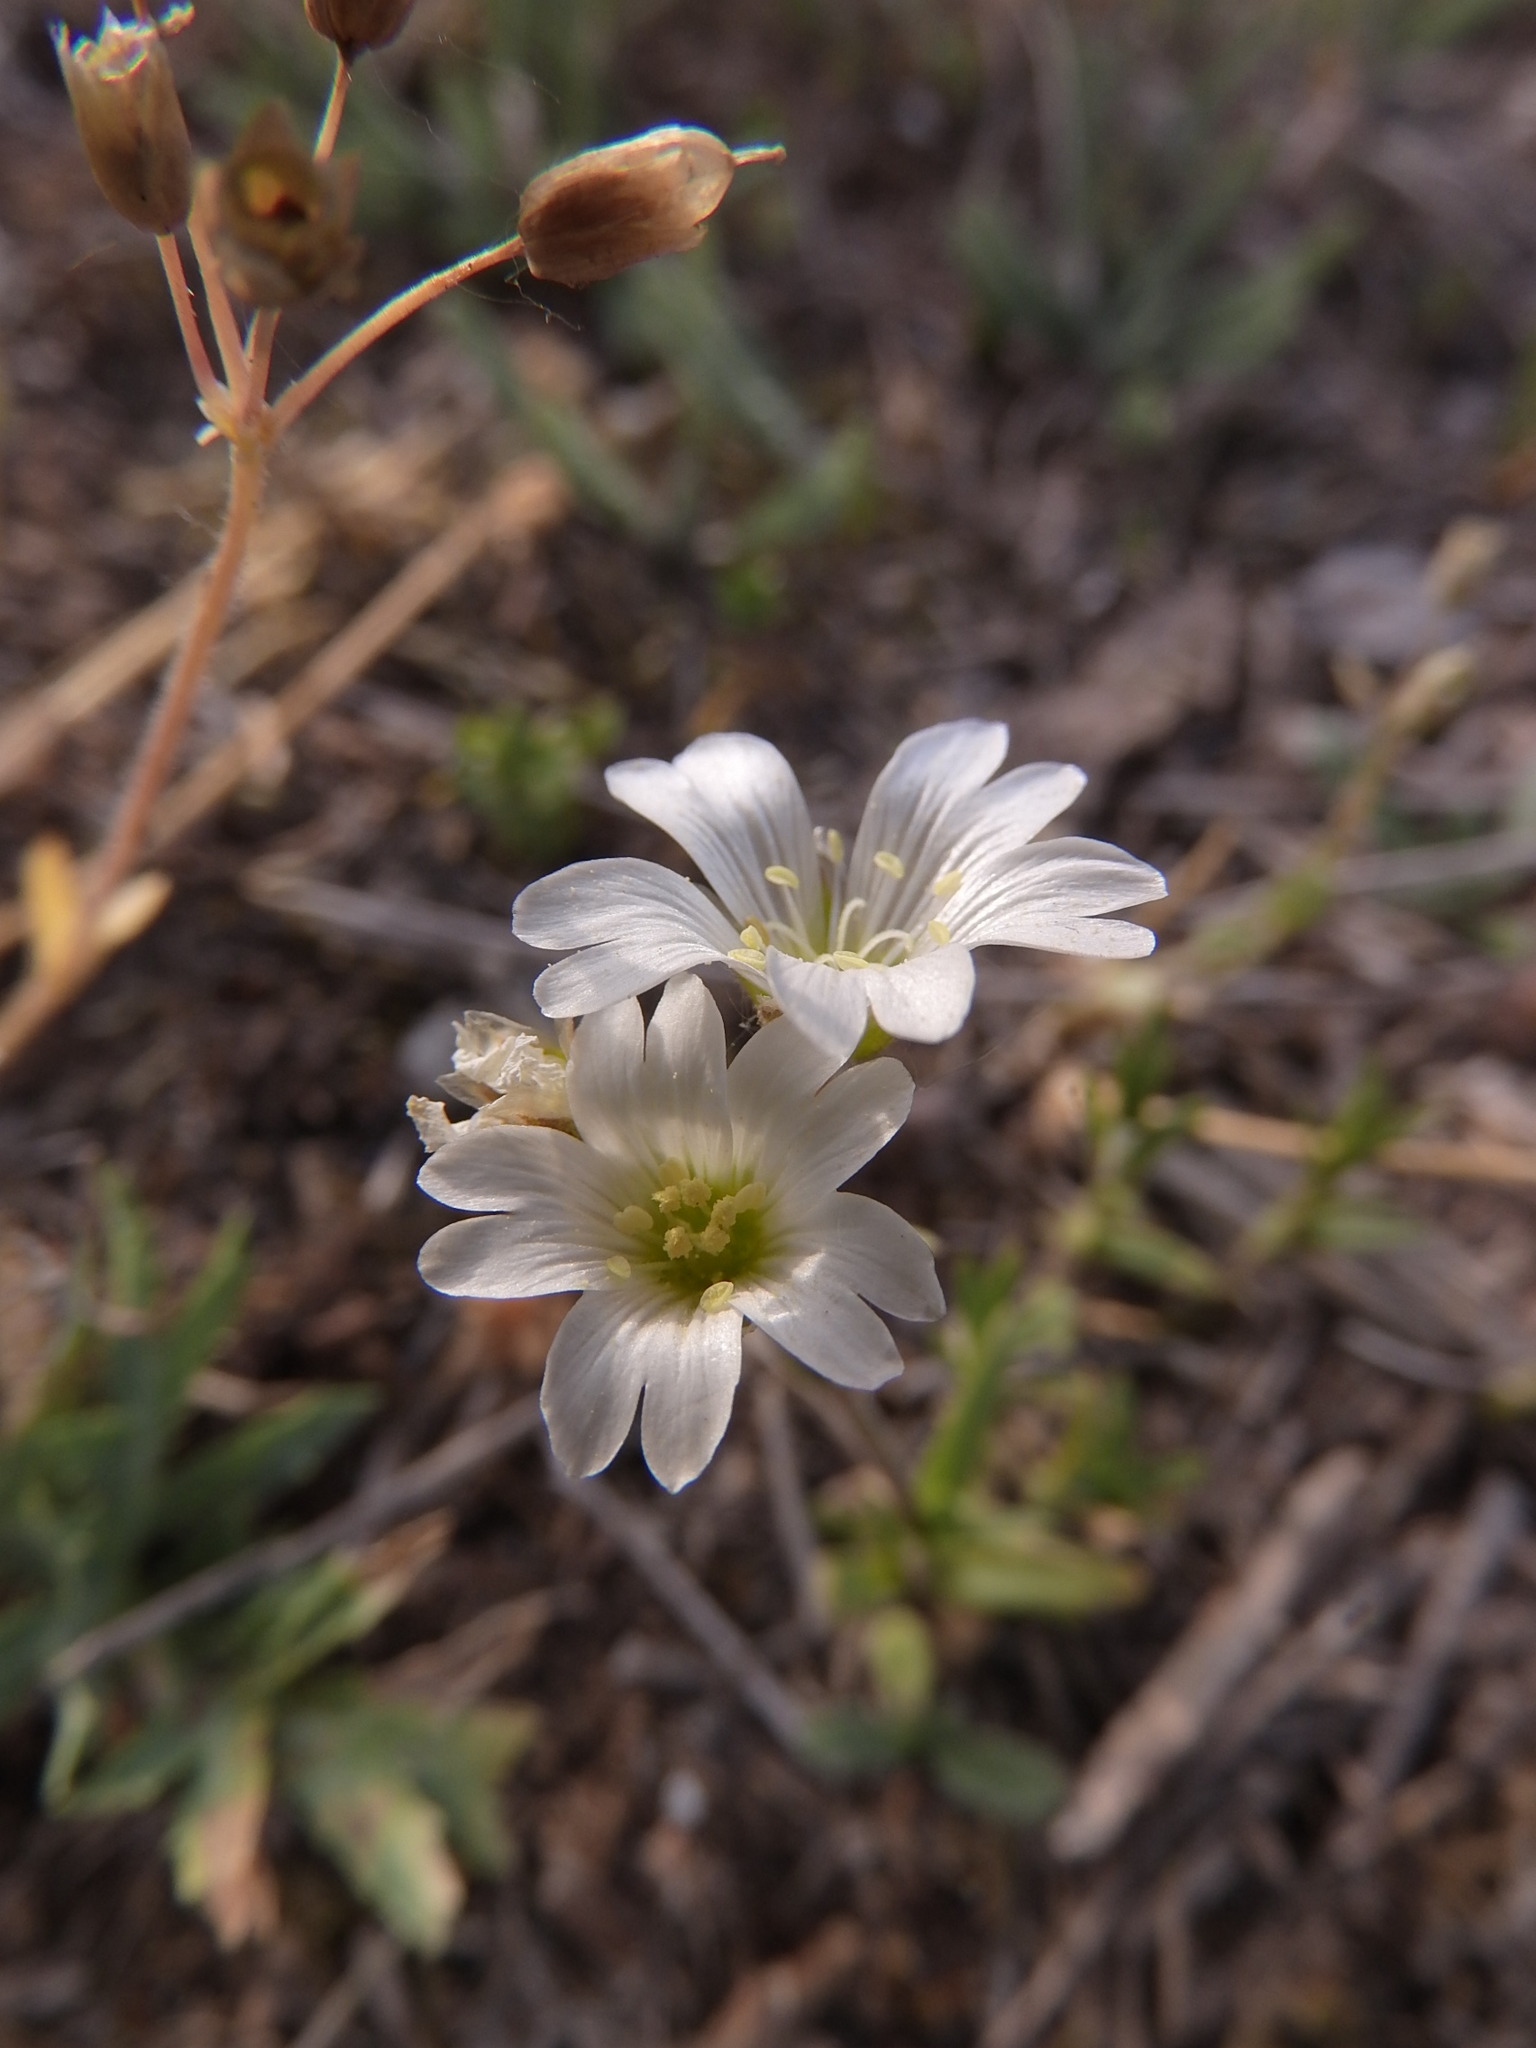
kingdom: Plantae
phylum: Tracheophyta
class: Magnoliopsida
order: Caryophyllales
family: Caryophyllaceae
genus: Cerastium
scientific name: Cerastium arvense
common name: Field mouse-ear
